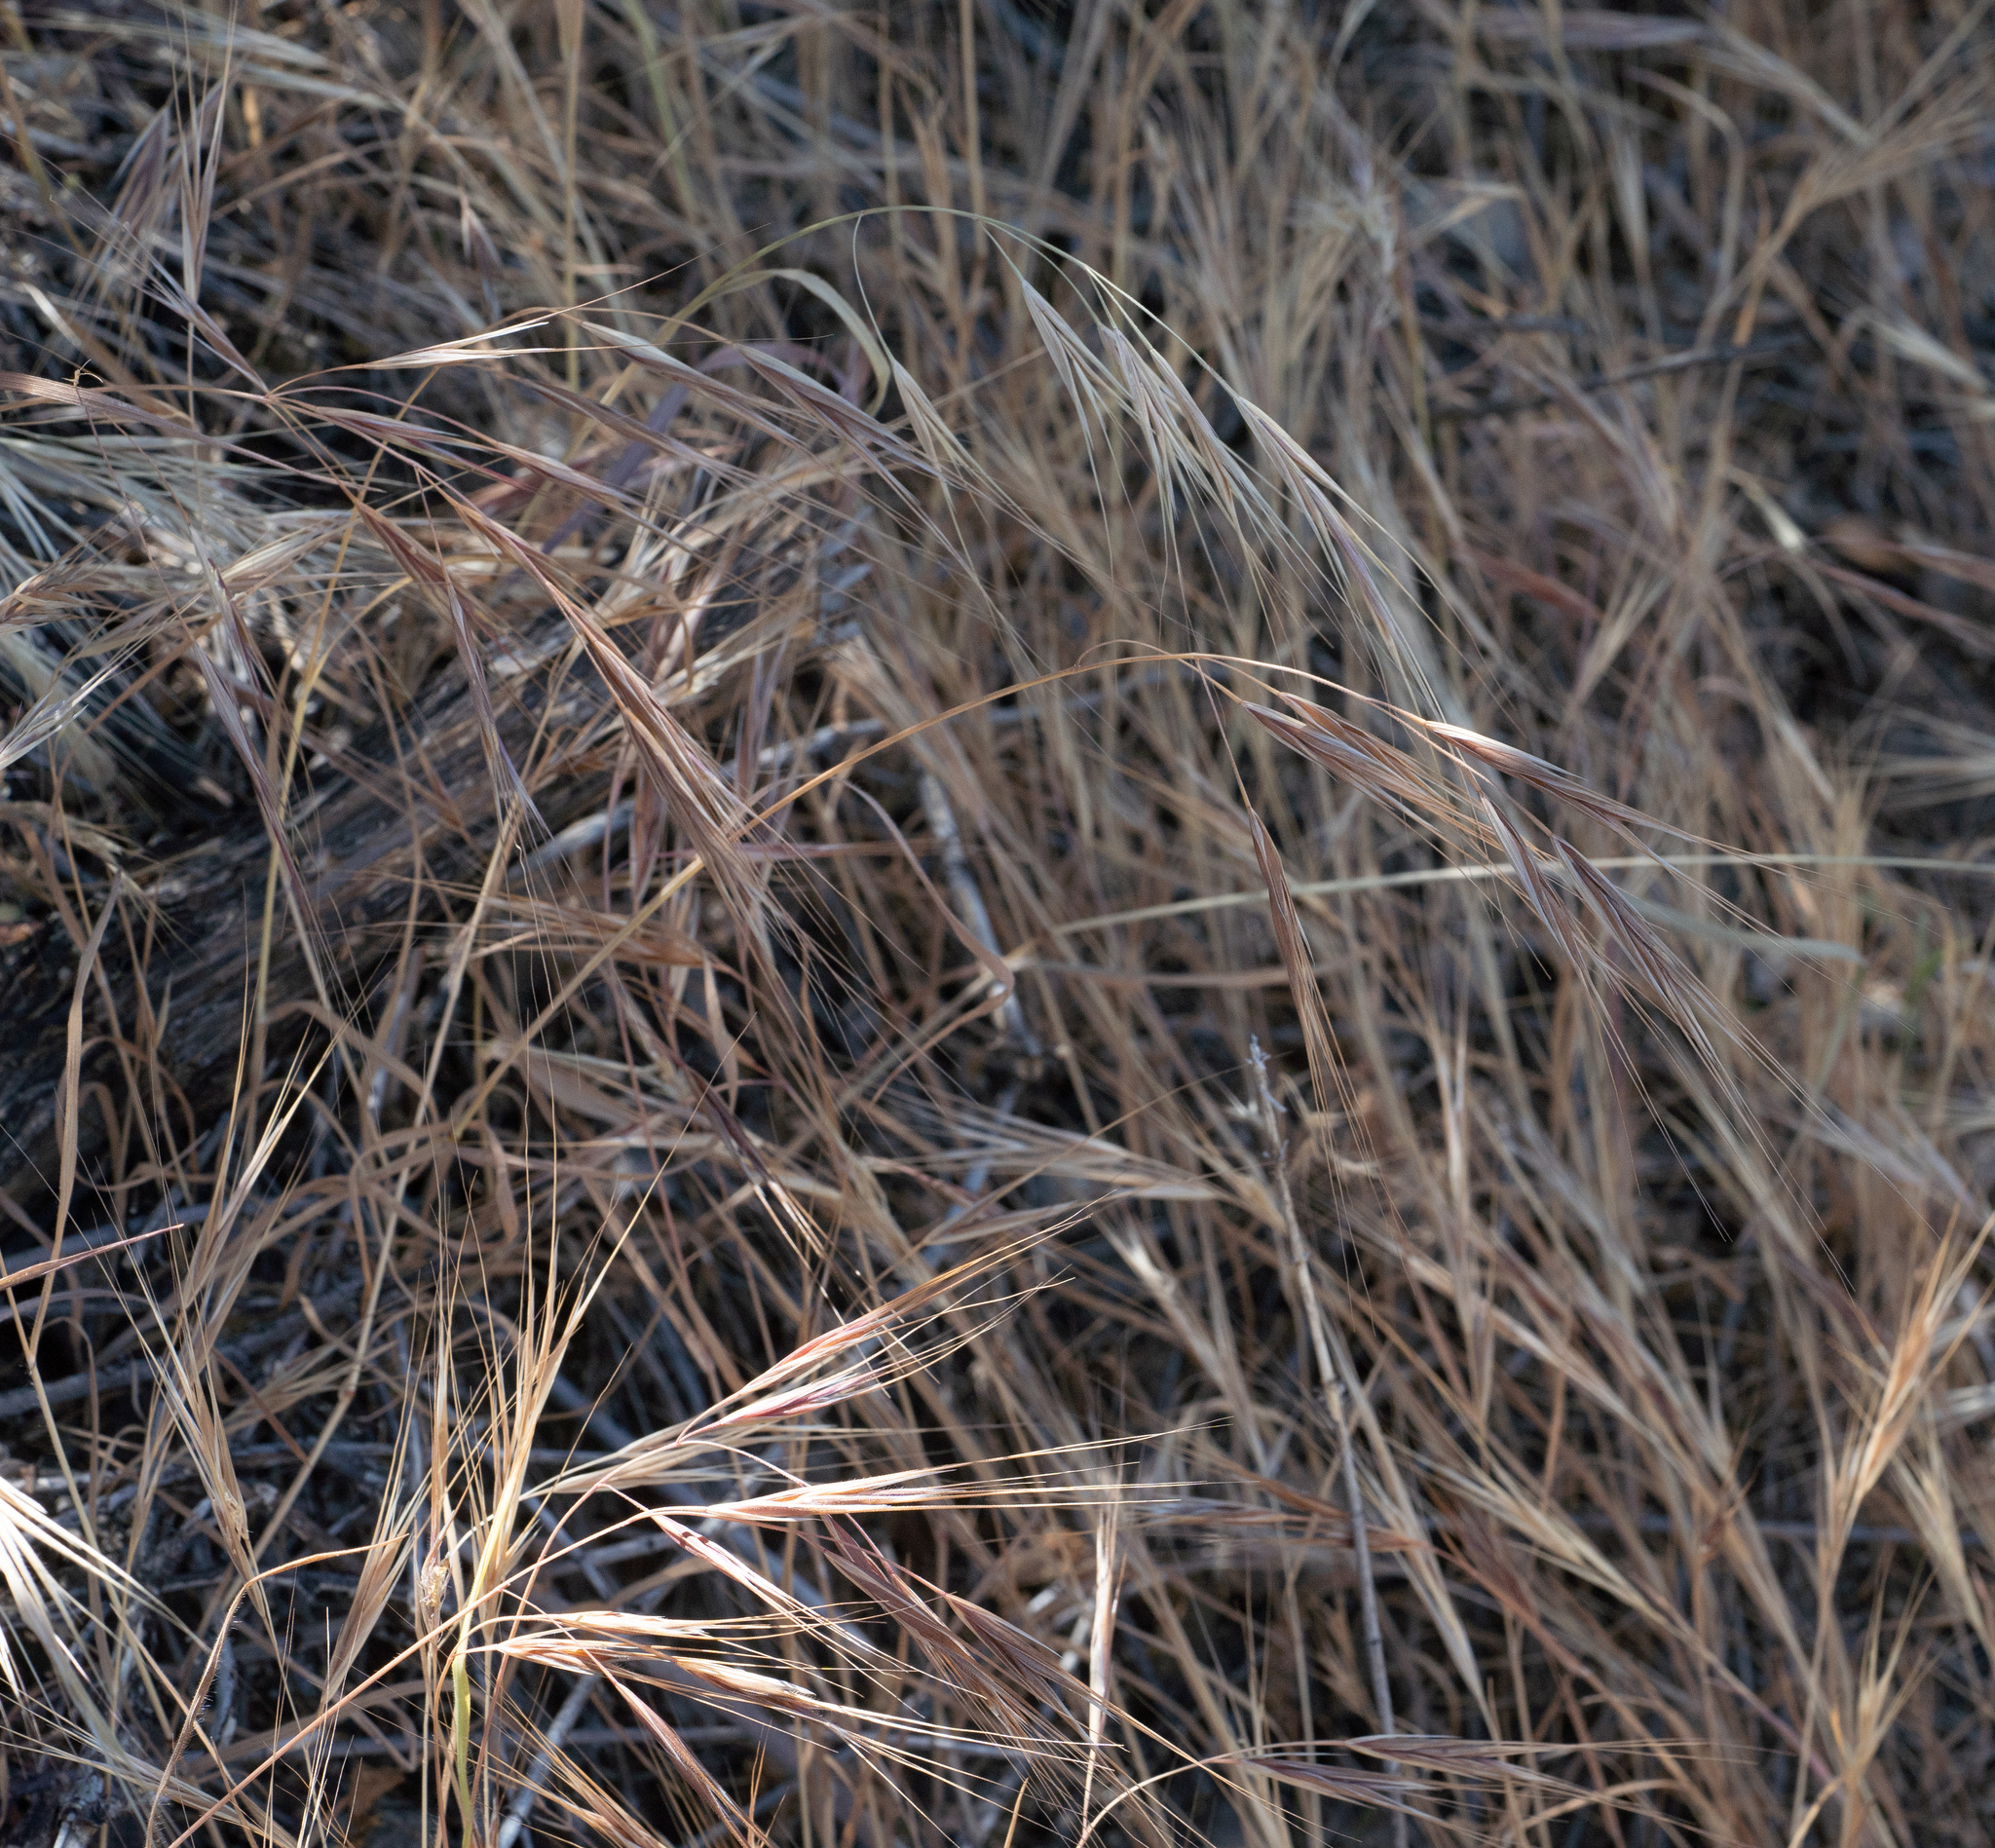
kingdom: Plantae
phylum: Tracheophyta
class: Liliopsida
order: Poales
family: Poaceae
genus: Bromus
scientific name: Bromus diandrus
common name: Ripgut brome
